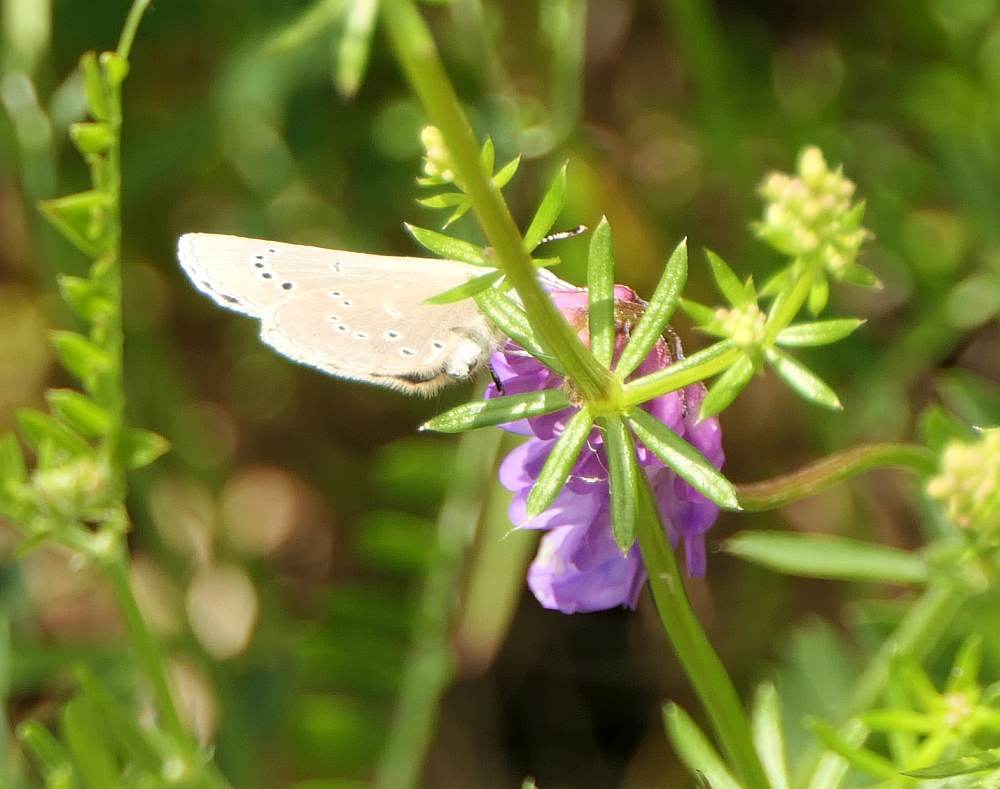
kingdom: Animalia
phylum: Arthropoda
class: Insecta
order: Lepidoptera
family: Lycaenidae
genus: Glaucopsyche
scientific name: Glaucopsyche lygdamus
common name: Silvery blue
